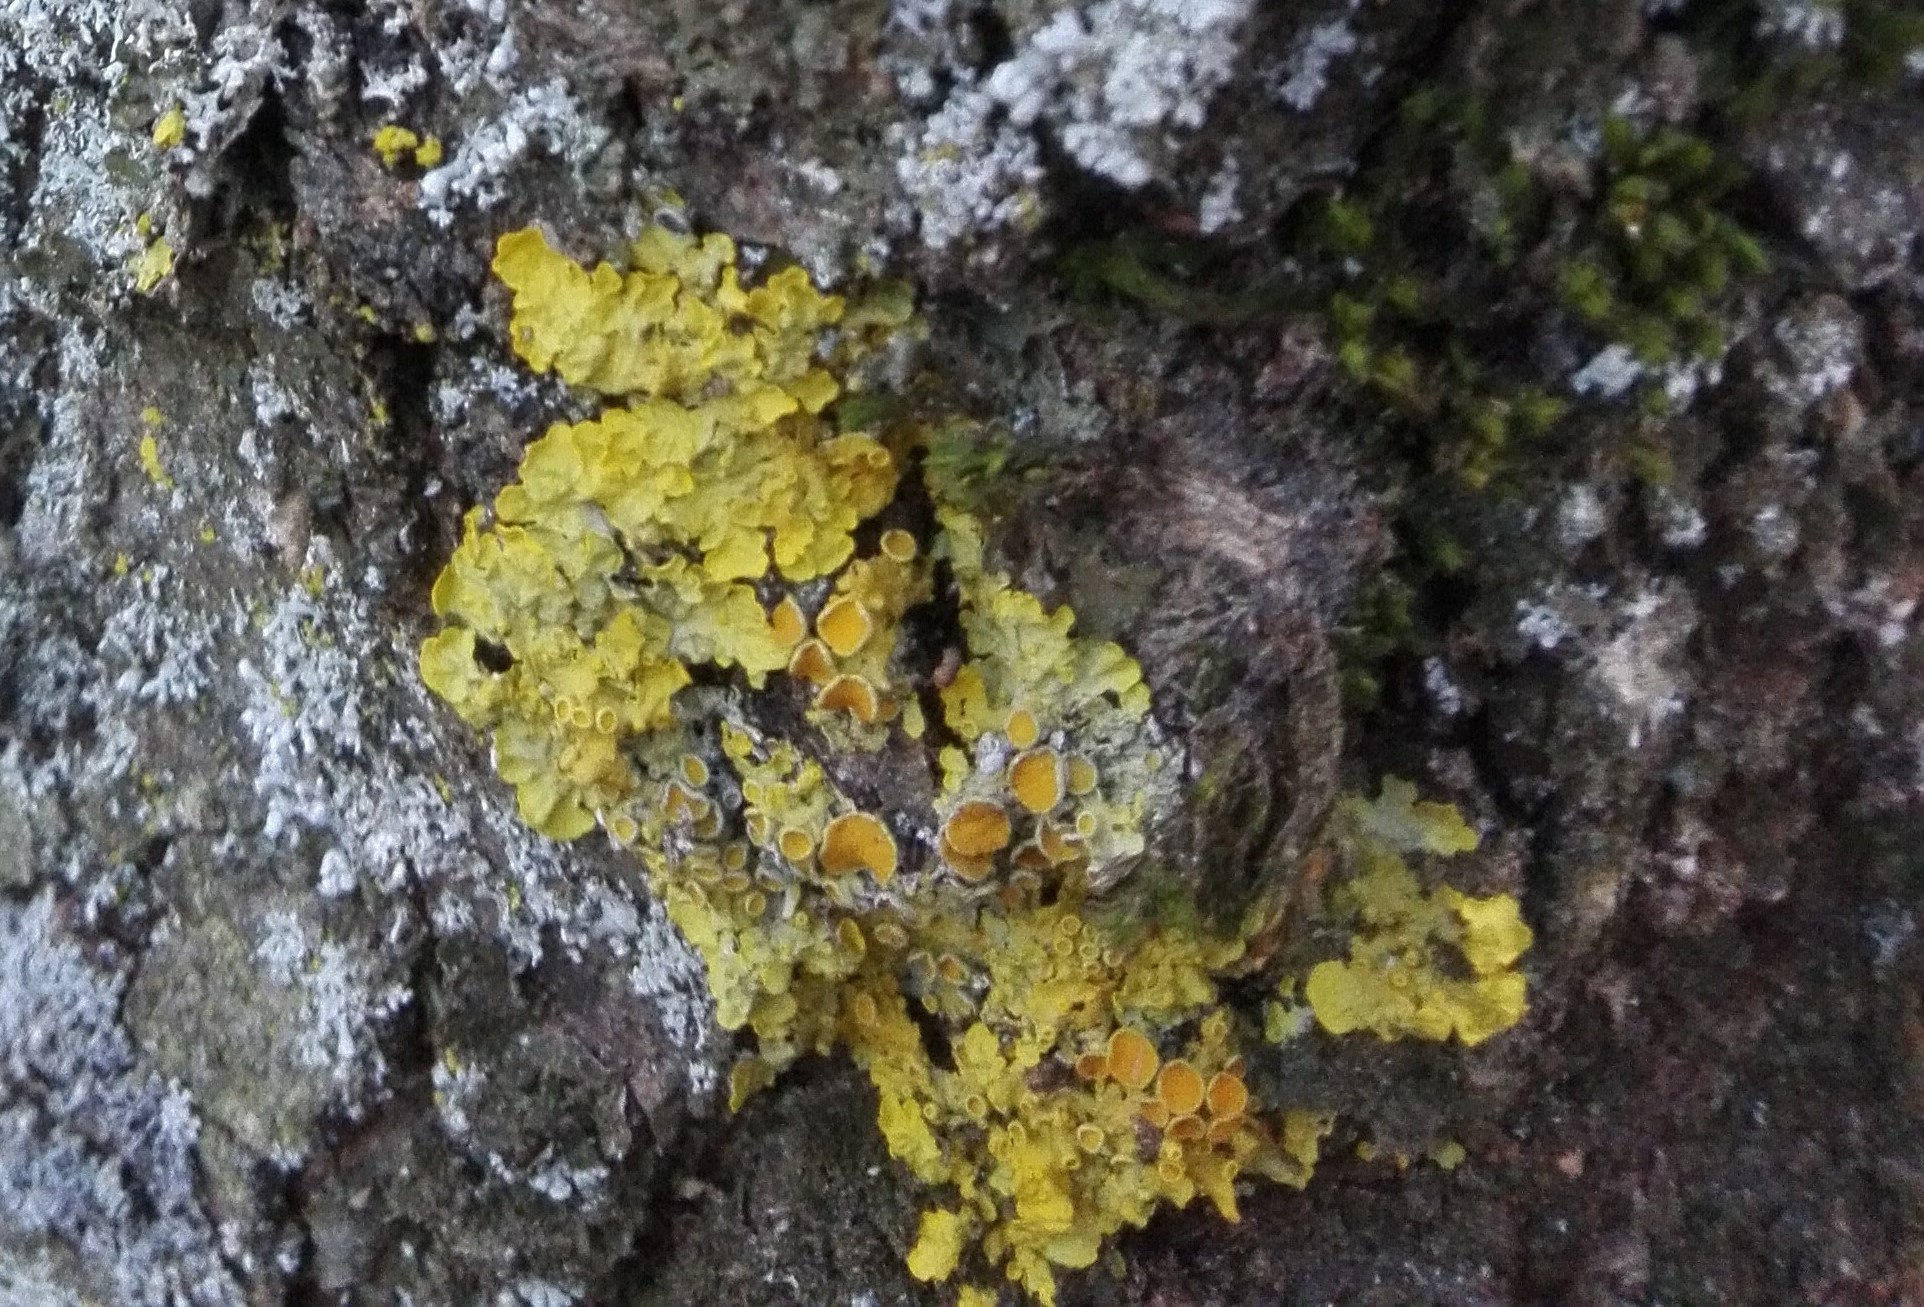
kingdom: Fungi
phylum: Ascomycota
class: Lecanoromycetes
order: Teloschistales
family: Teloschistaceae
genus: Xanthoria
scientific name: Xanthoria parietina
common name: Common orange lichen
